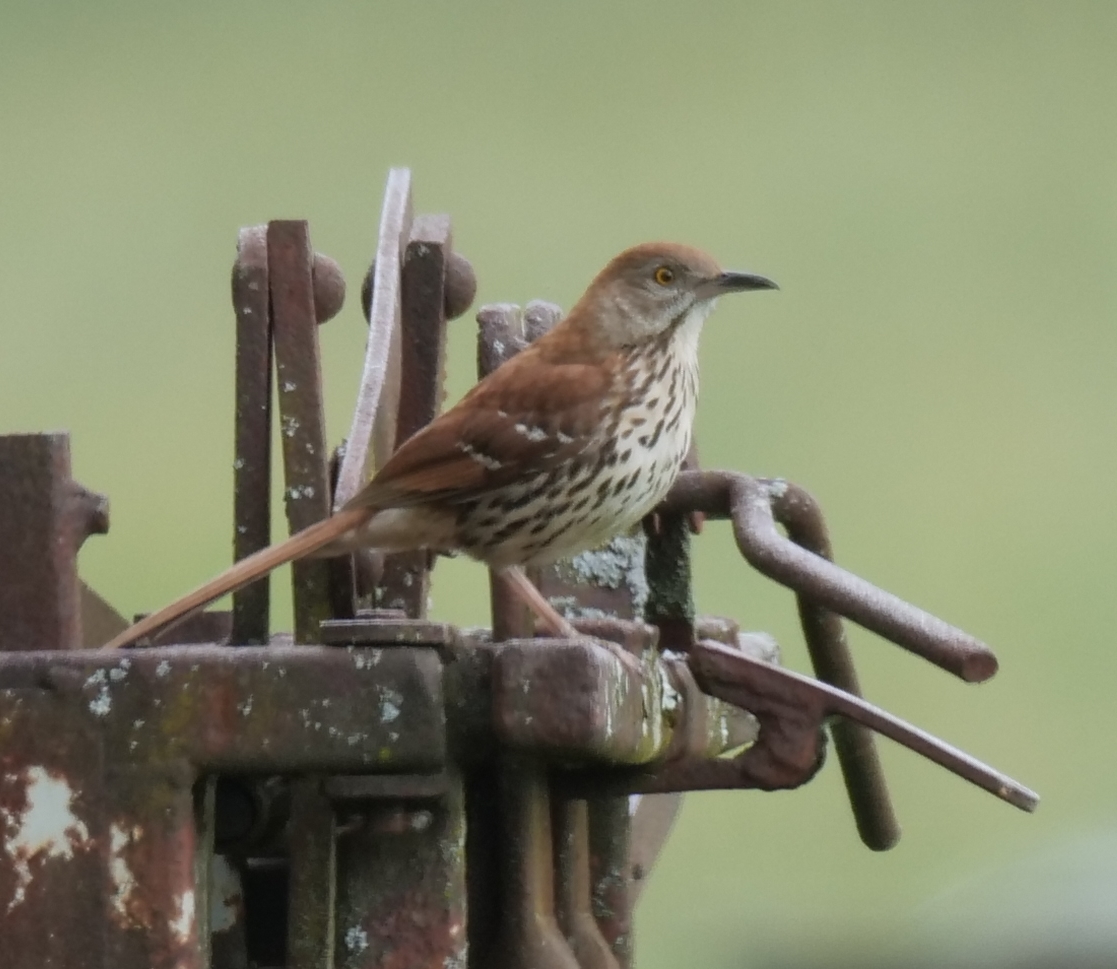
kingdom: Animalia
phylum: Chordata
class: Aves
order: Passeriformes
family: Mimidae
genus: Toxostoma
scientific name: Toxostoma rufum
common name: Brown thrasher
